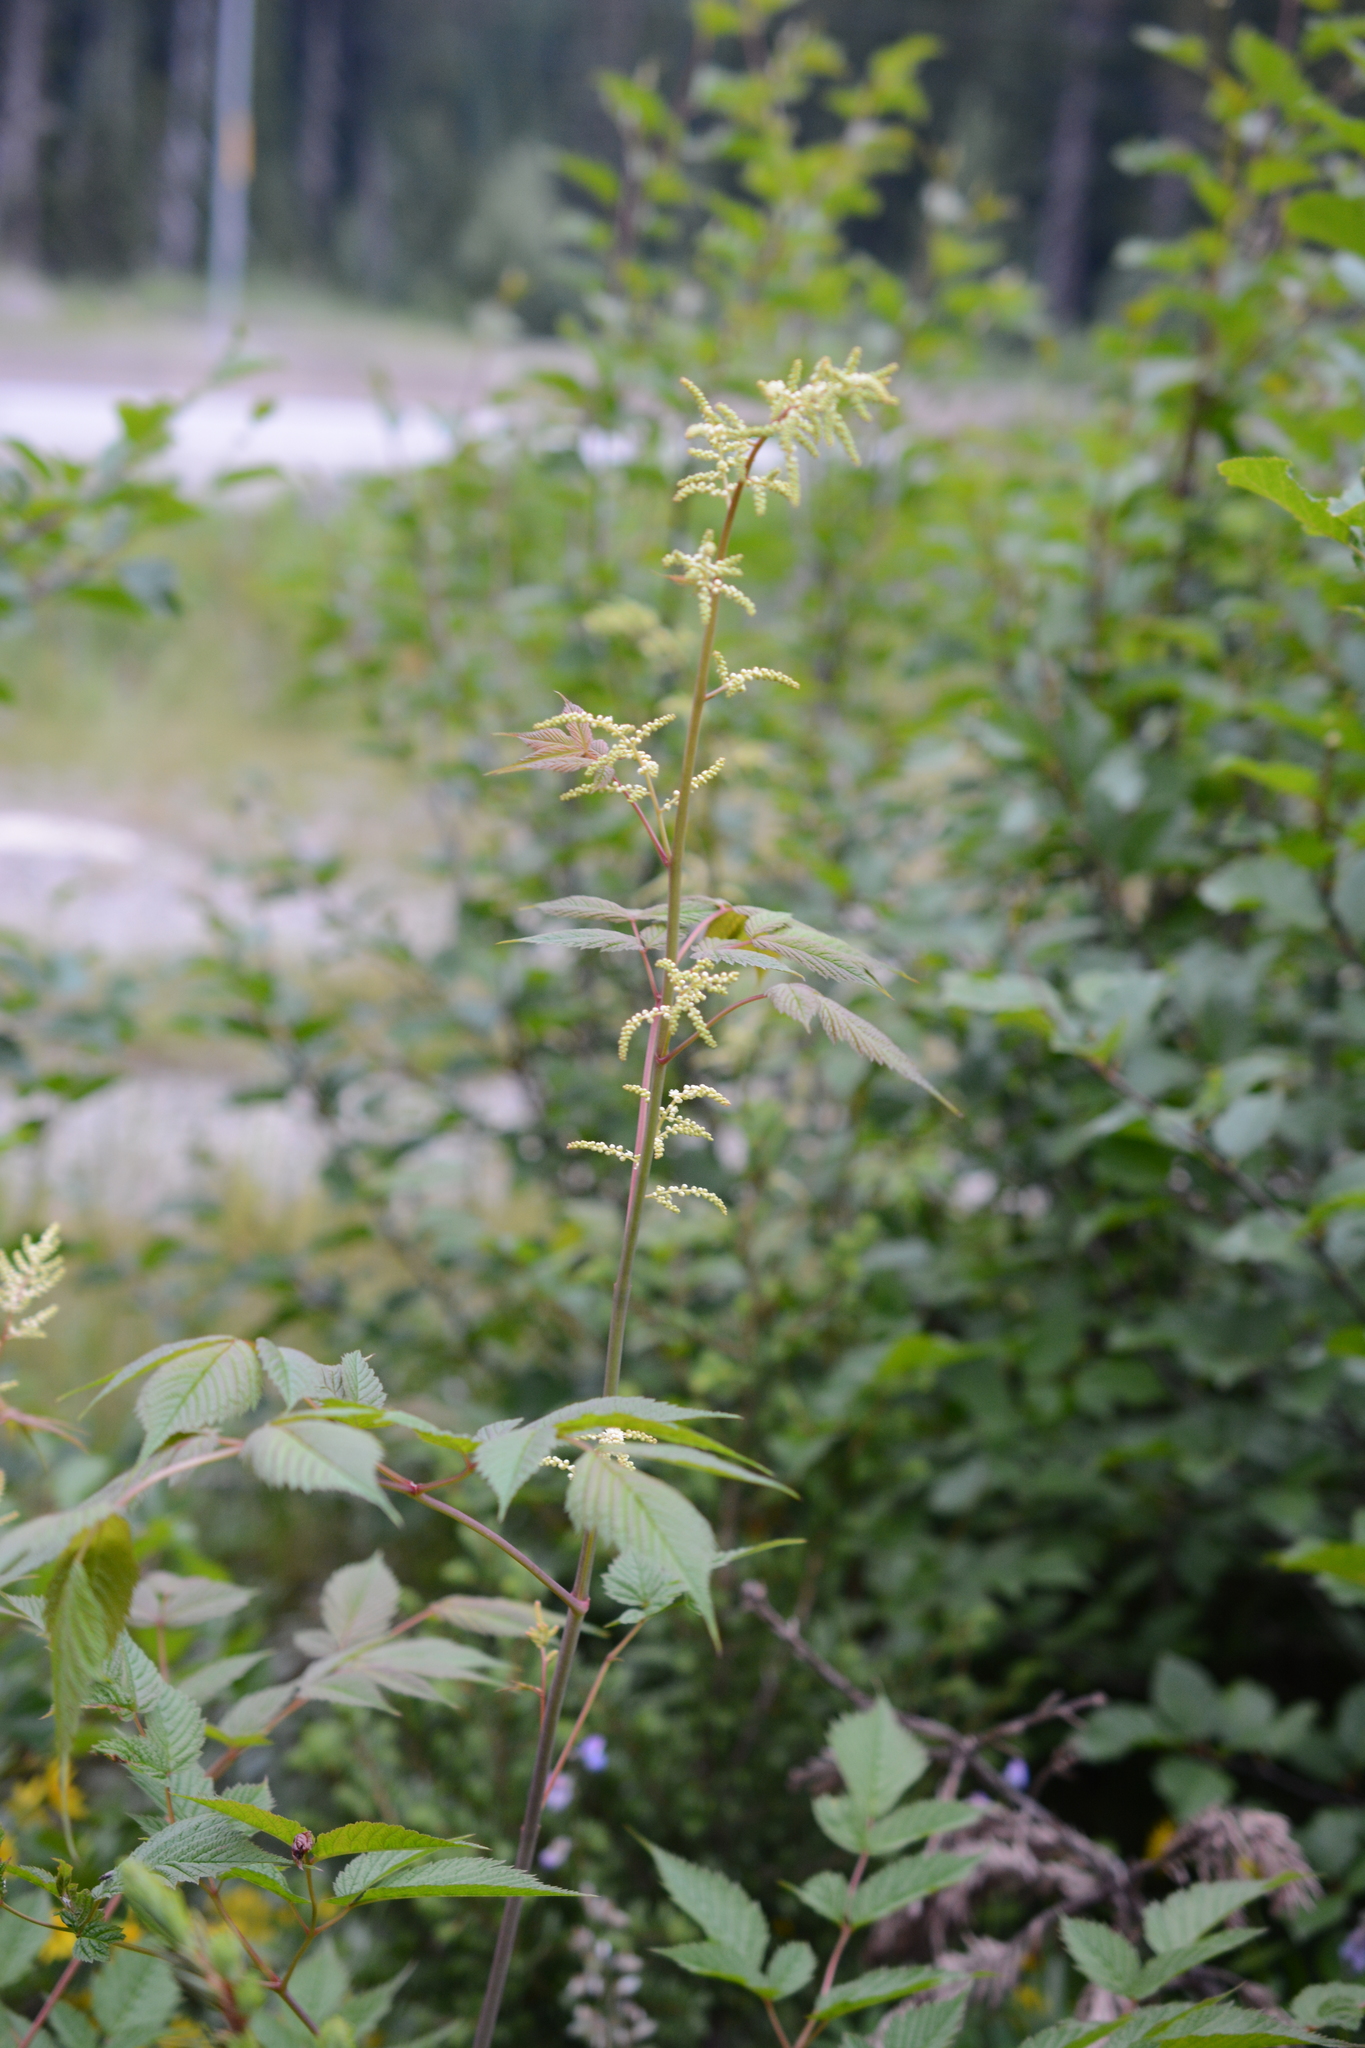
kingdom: Plantae
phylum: Tracheophyta
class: Magnoliopsida
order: Rosales
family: Rosaceae
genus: Aruncus
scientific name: Aruncus dioicus
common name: Buck's-beard
